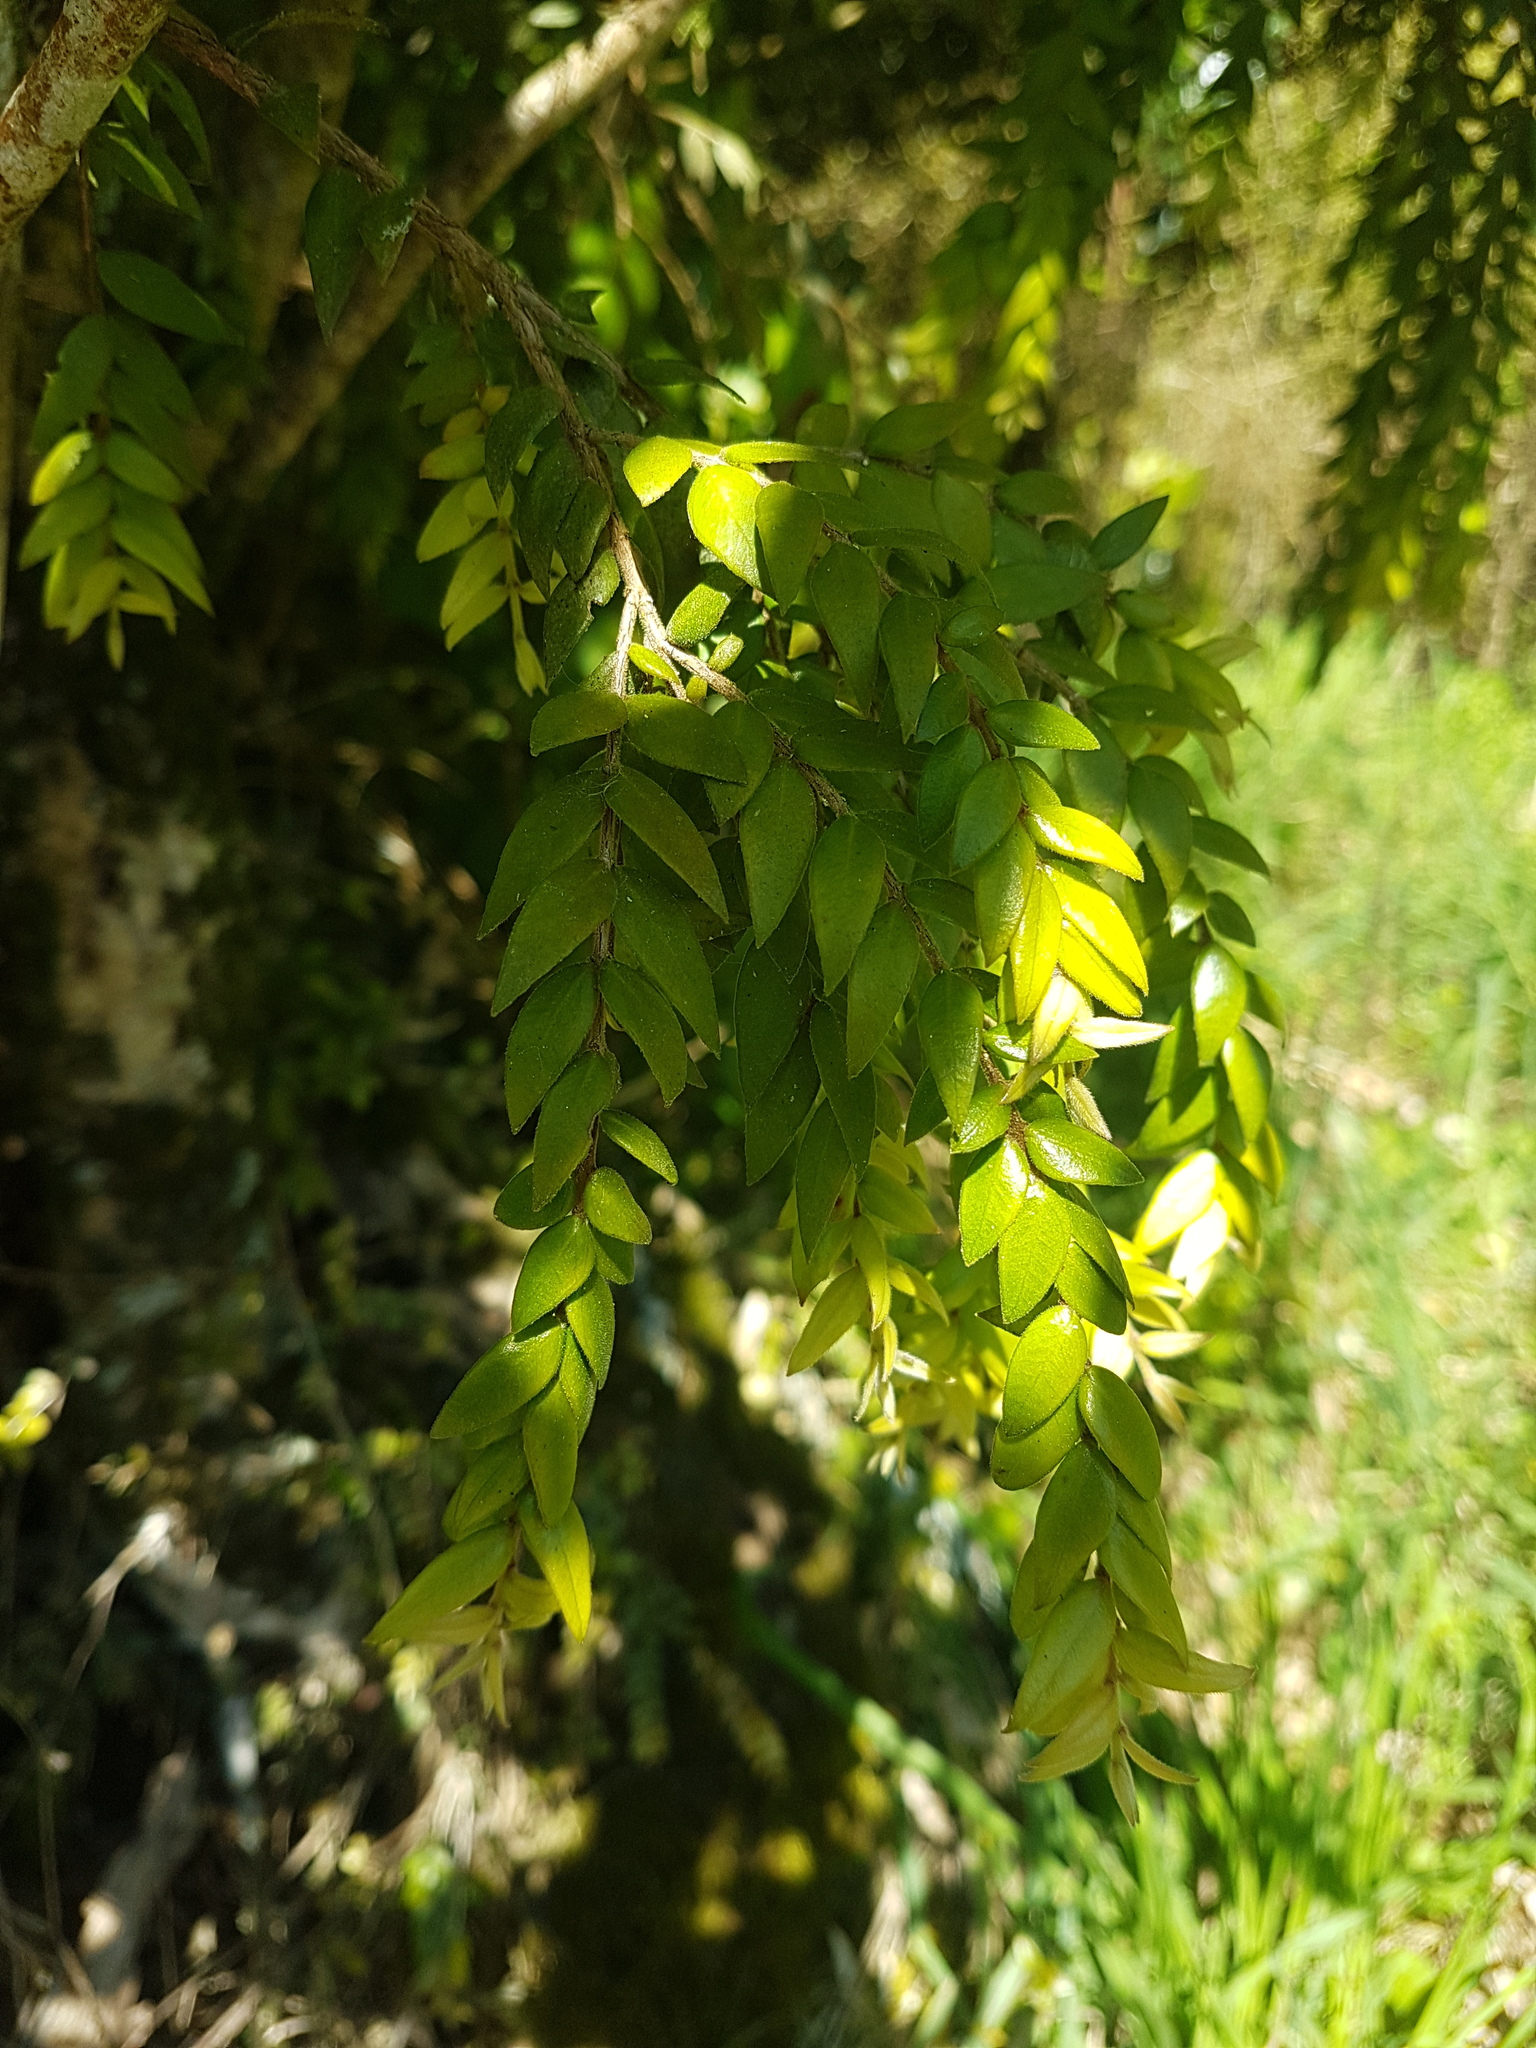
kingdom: Plantae
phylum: Tracheophyta
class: Magnoliopsida
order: Myrtales
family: Myrtaceae
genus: Metrosideros
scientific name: Metrosideros colensoi
